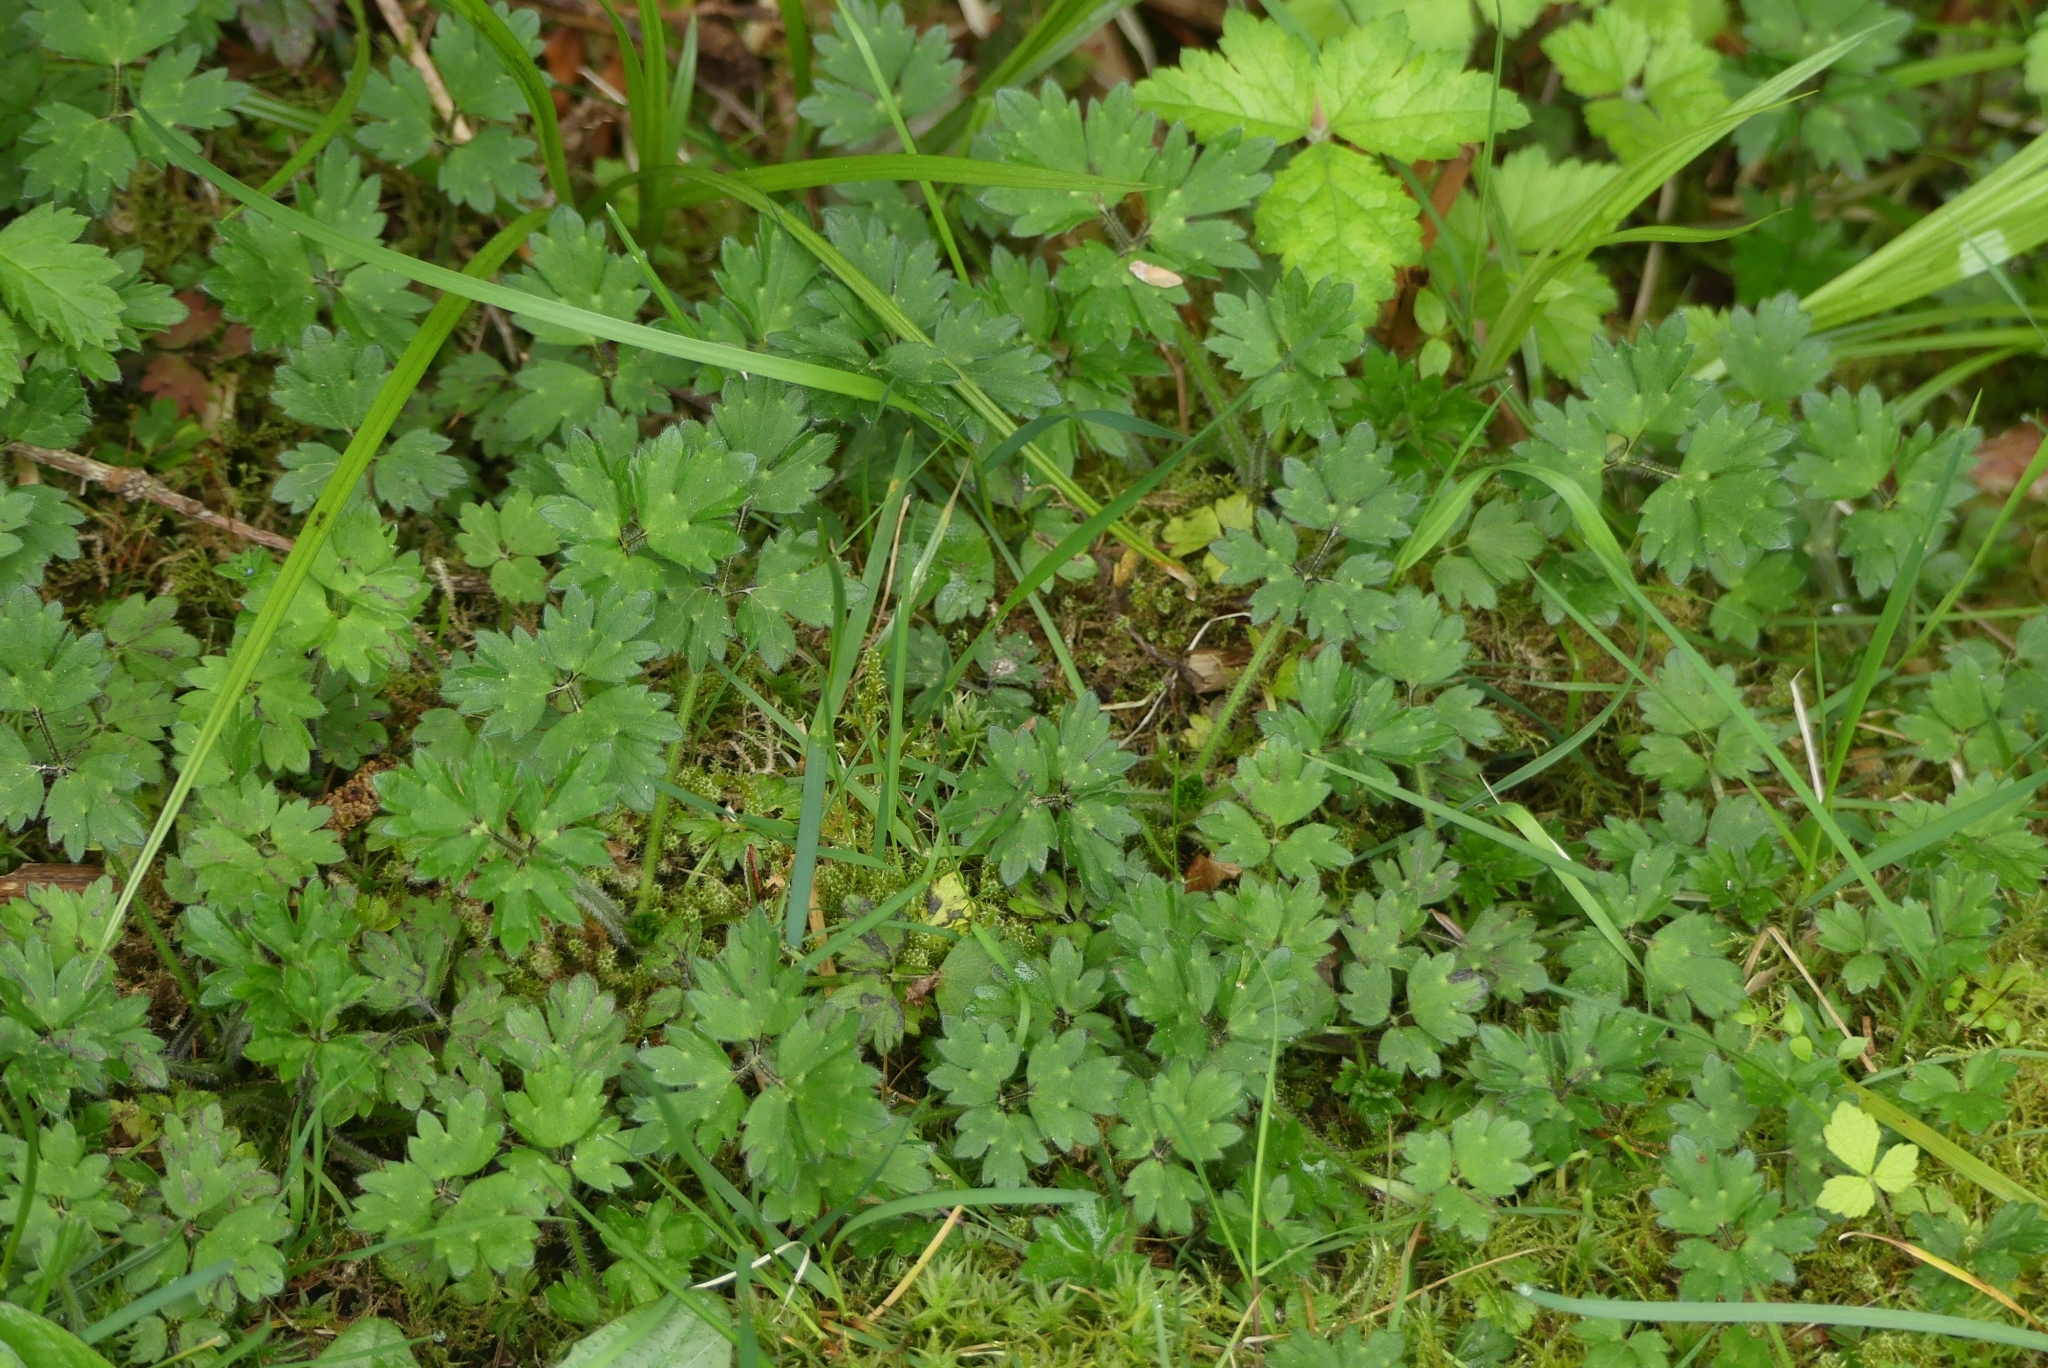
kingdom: Plantae
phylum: Tracheophyta
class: Magnoliopsida
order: Ranunculales
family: Ranunculaceae
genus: Ranunculus
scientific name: Ranunculus repens
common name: Creeping buttercup
